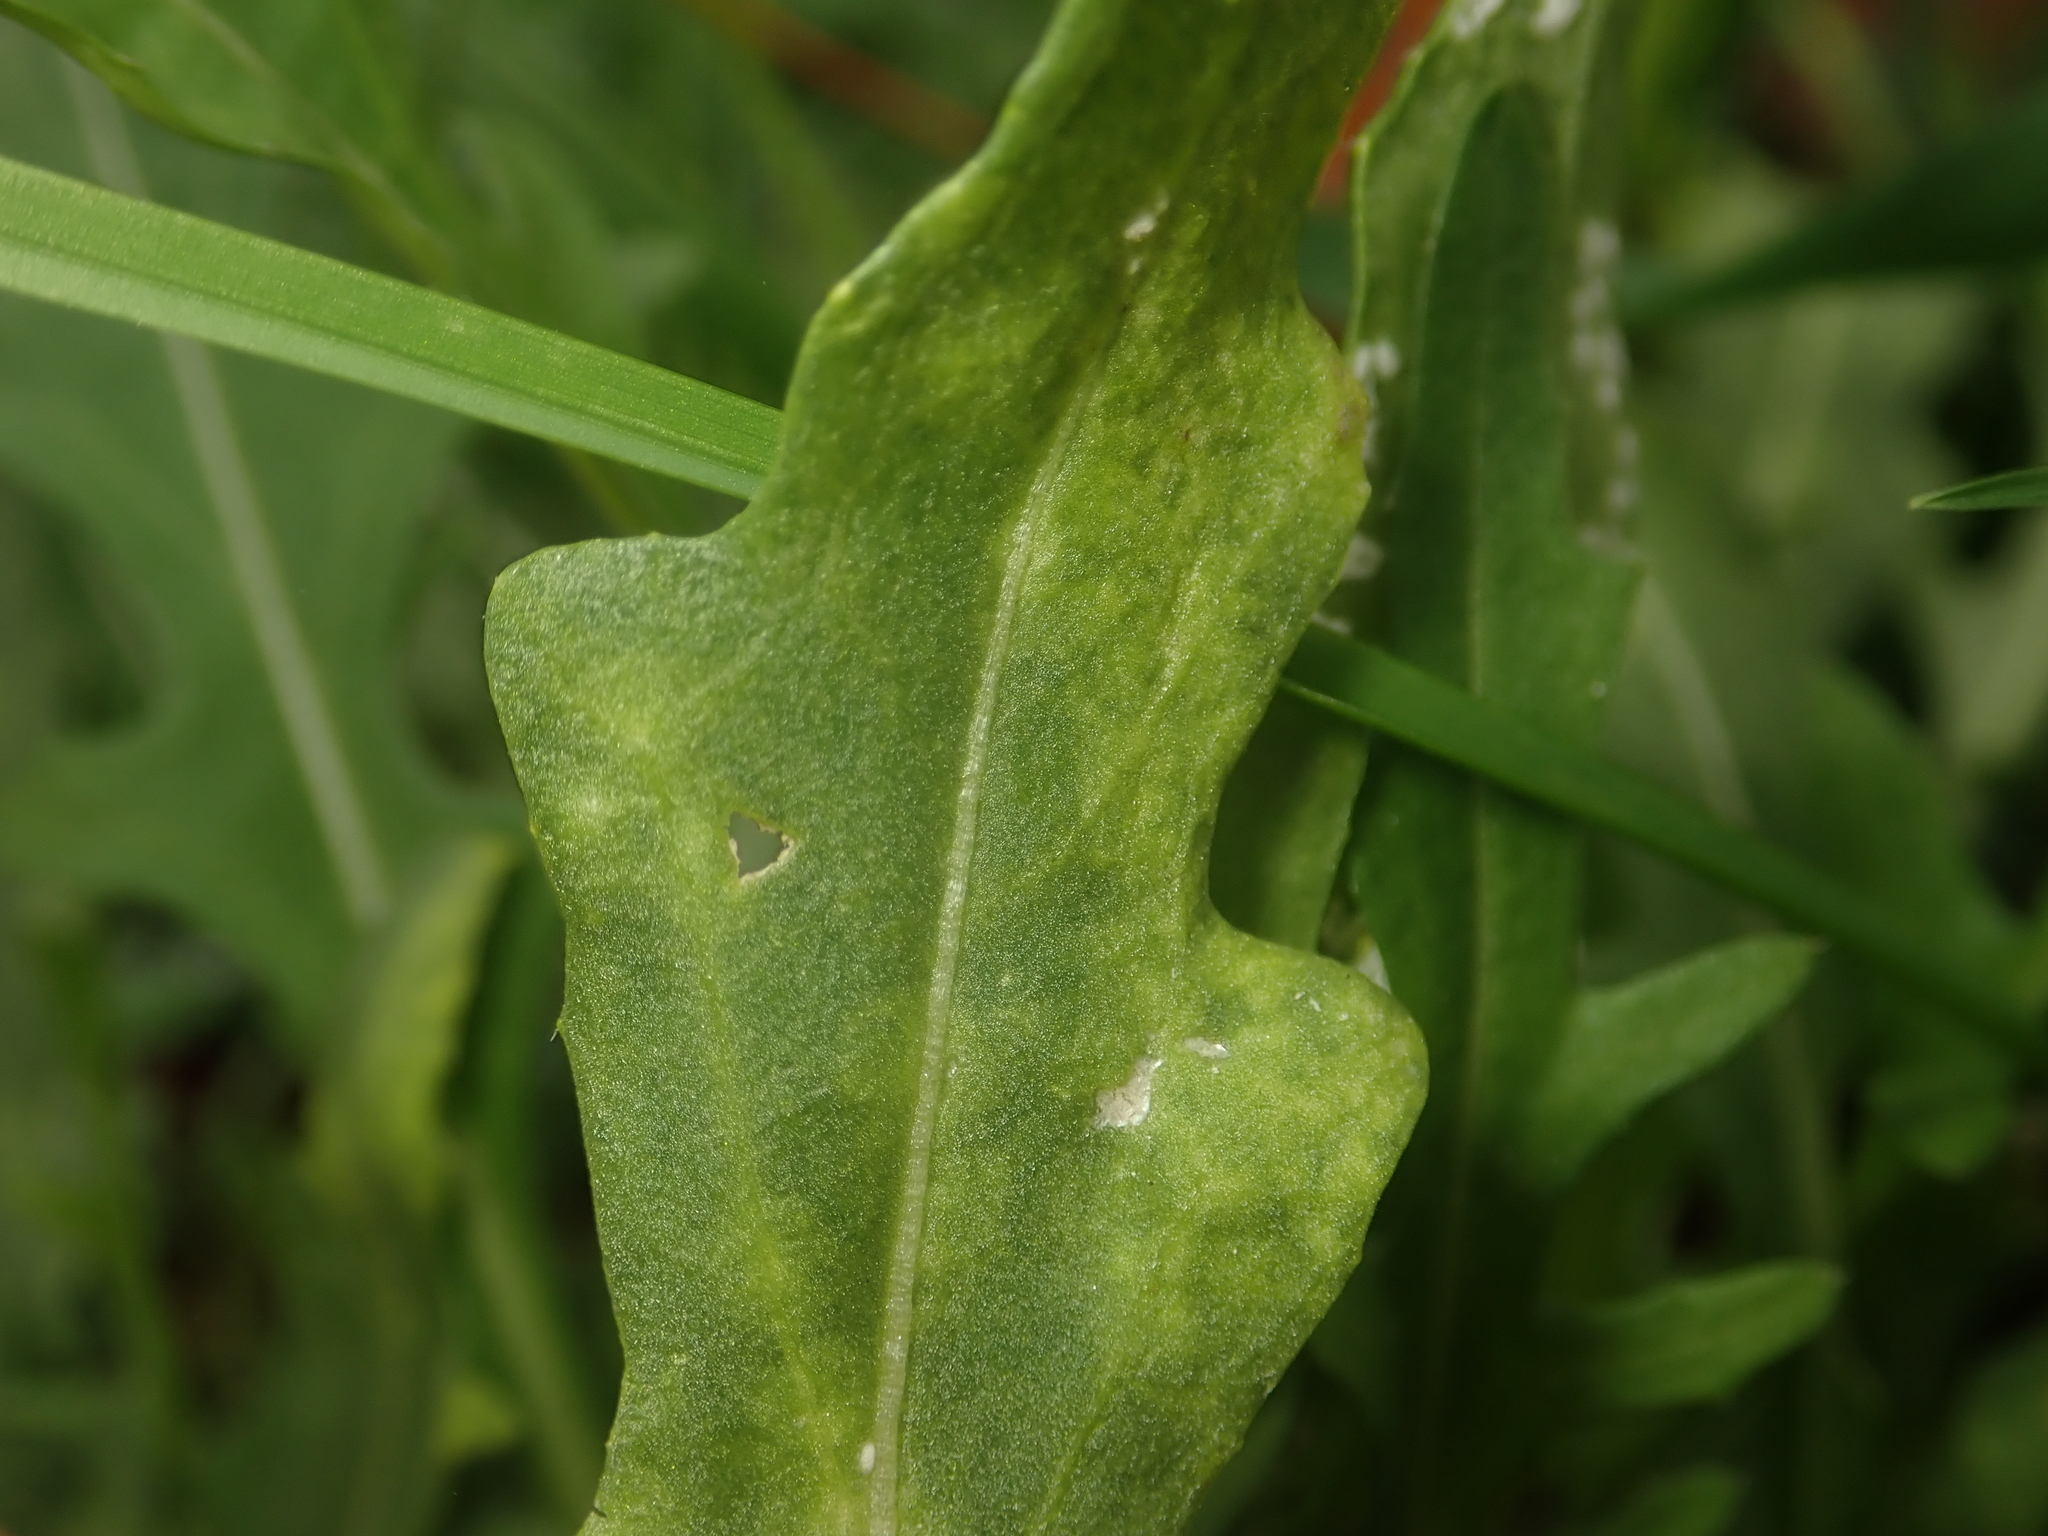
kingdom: Chromista
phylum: Oomycota
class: Peronosporea
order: Albuginales
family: Albuginaceae
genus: Albugo
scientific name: Albugo candida
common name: Crucifer white blister
